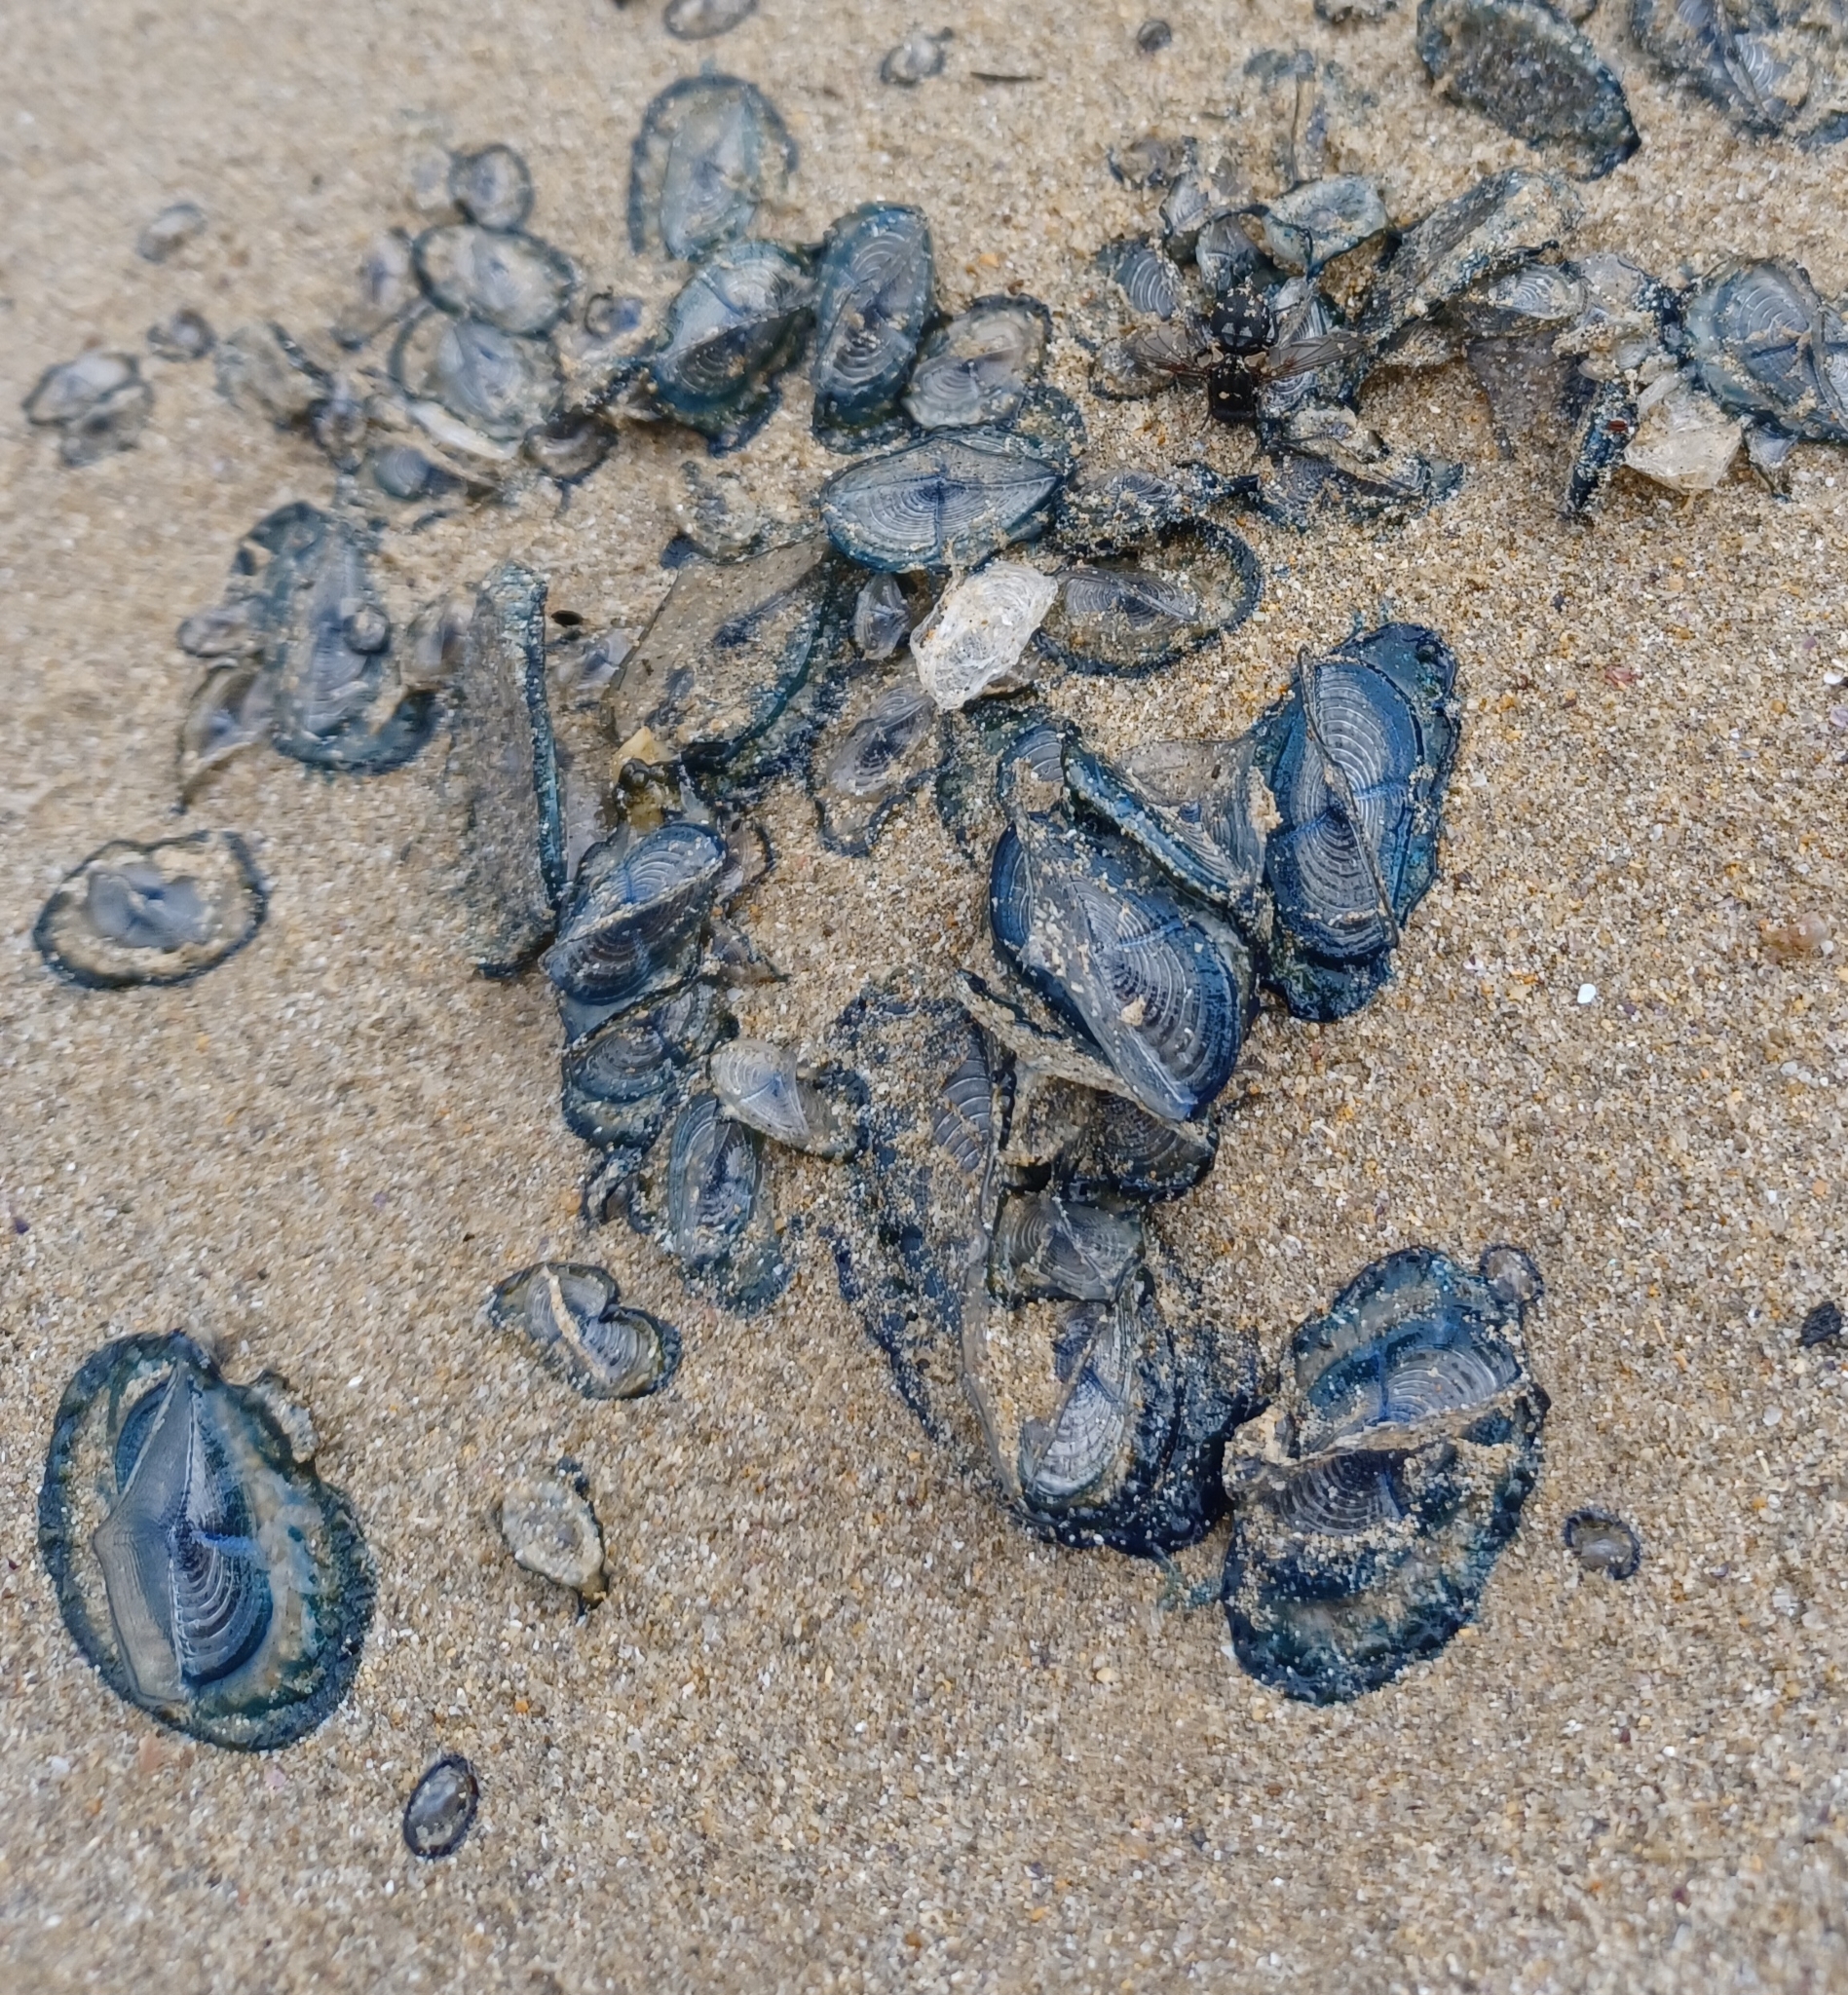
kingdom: Animalia
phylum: Cnidaria
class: Hydrozoa
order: Anthoathecata
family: Porpitidae
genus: Velella
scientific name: Velella velella
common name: By-the-wind-sailor
